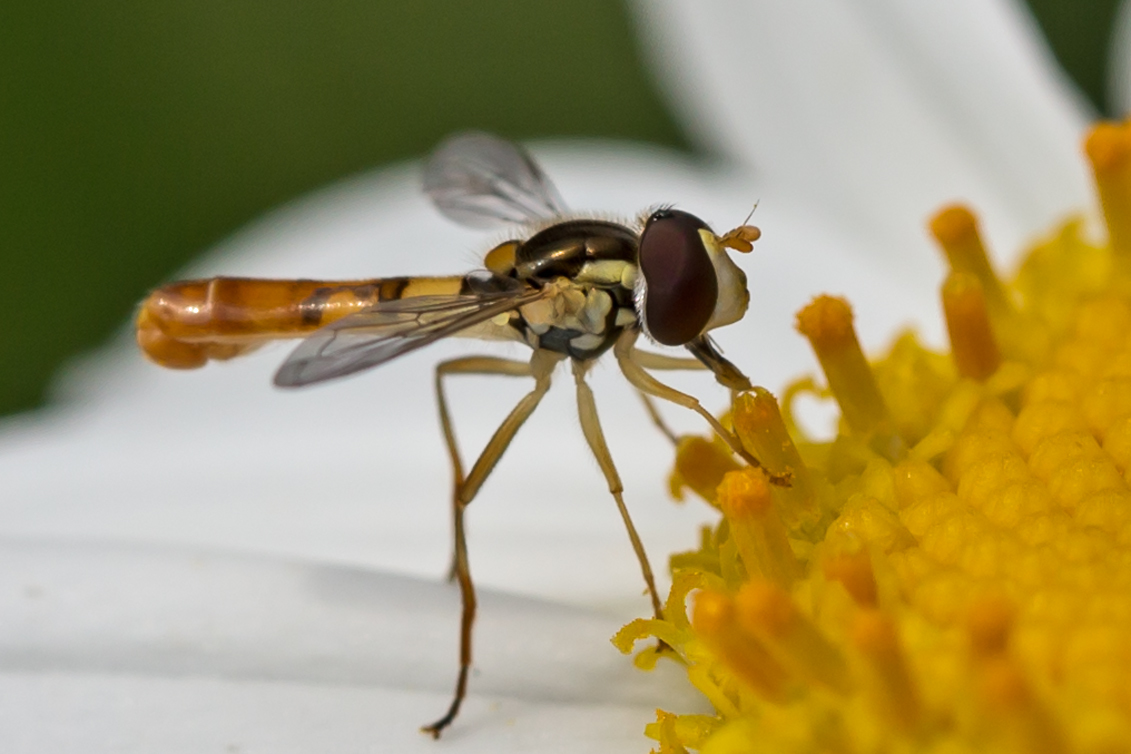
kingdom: Animalia
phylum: Arthropoda
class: Insecta
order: Diptera
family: Syrphidae
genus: Sphaerophoria
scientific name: Sphaerophoria contigua
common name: Tufted globetail
